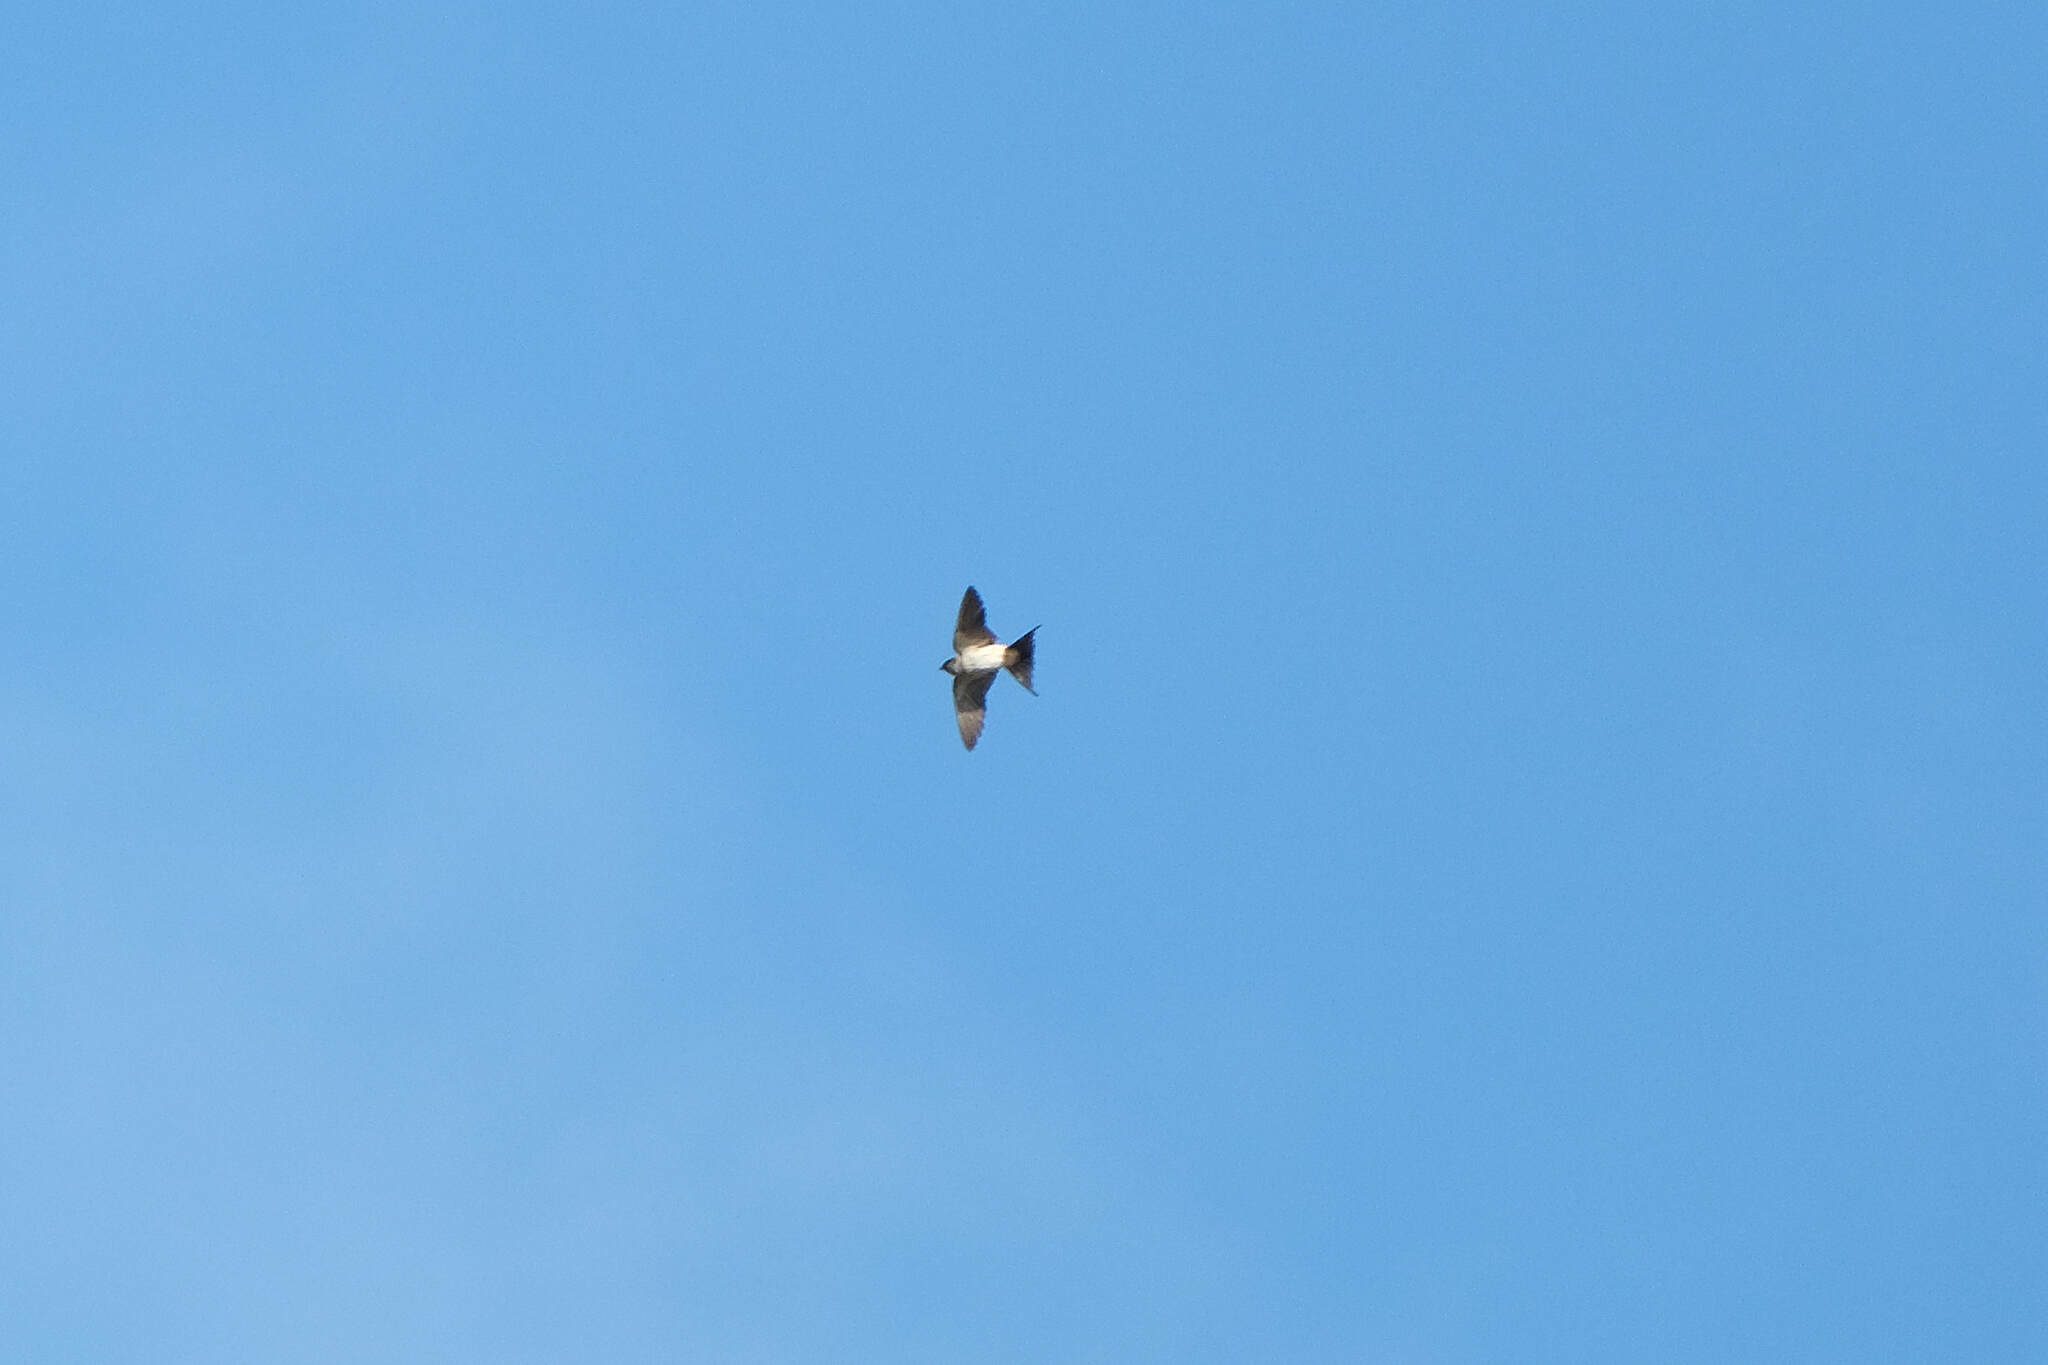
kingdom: Animalia
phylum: Chordata
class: Aves
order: Passeriformes
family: Hirundinidae
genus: Cecropis
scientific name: Cecropis daurica
